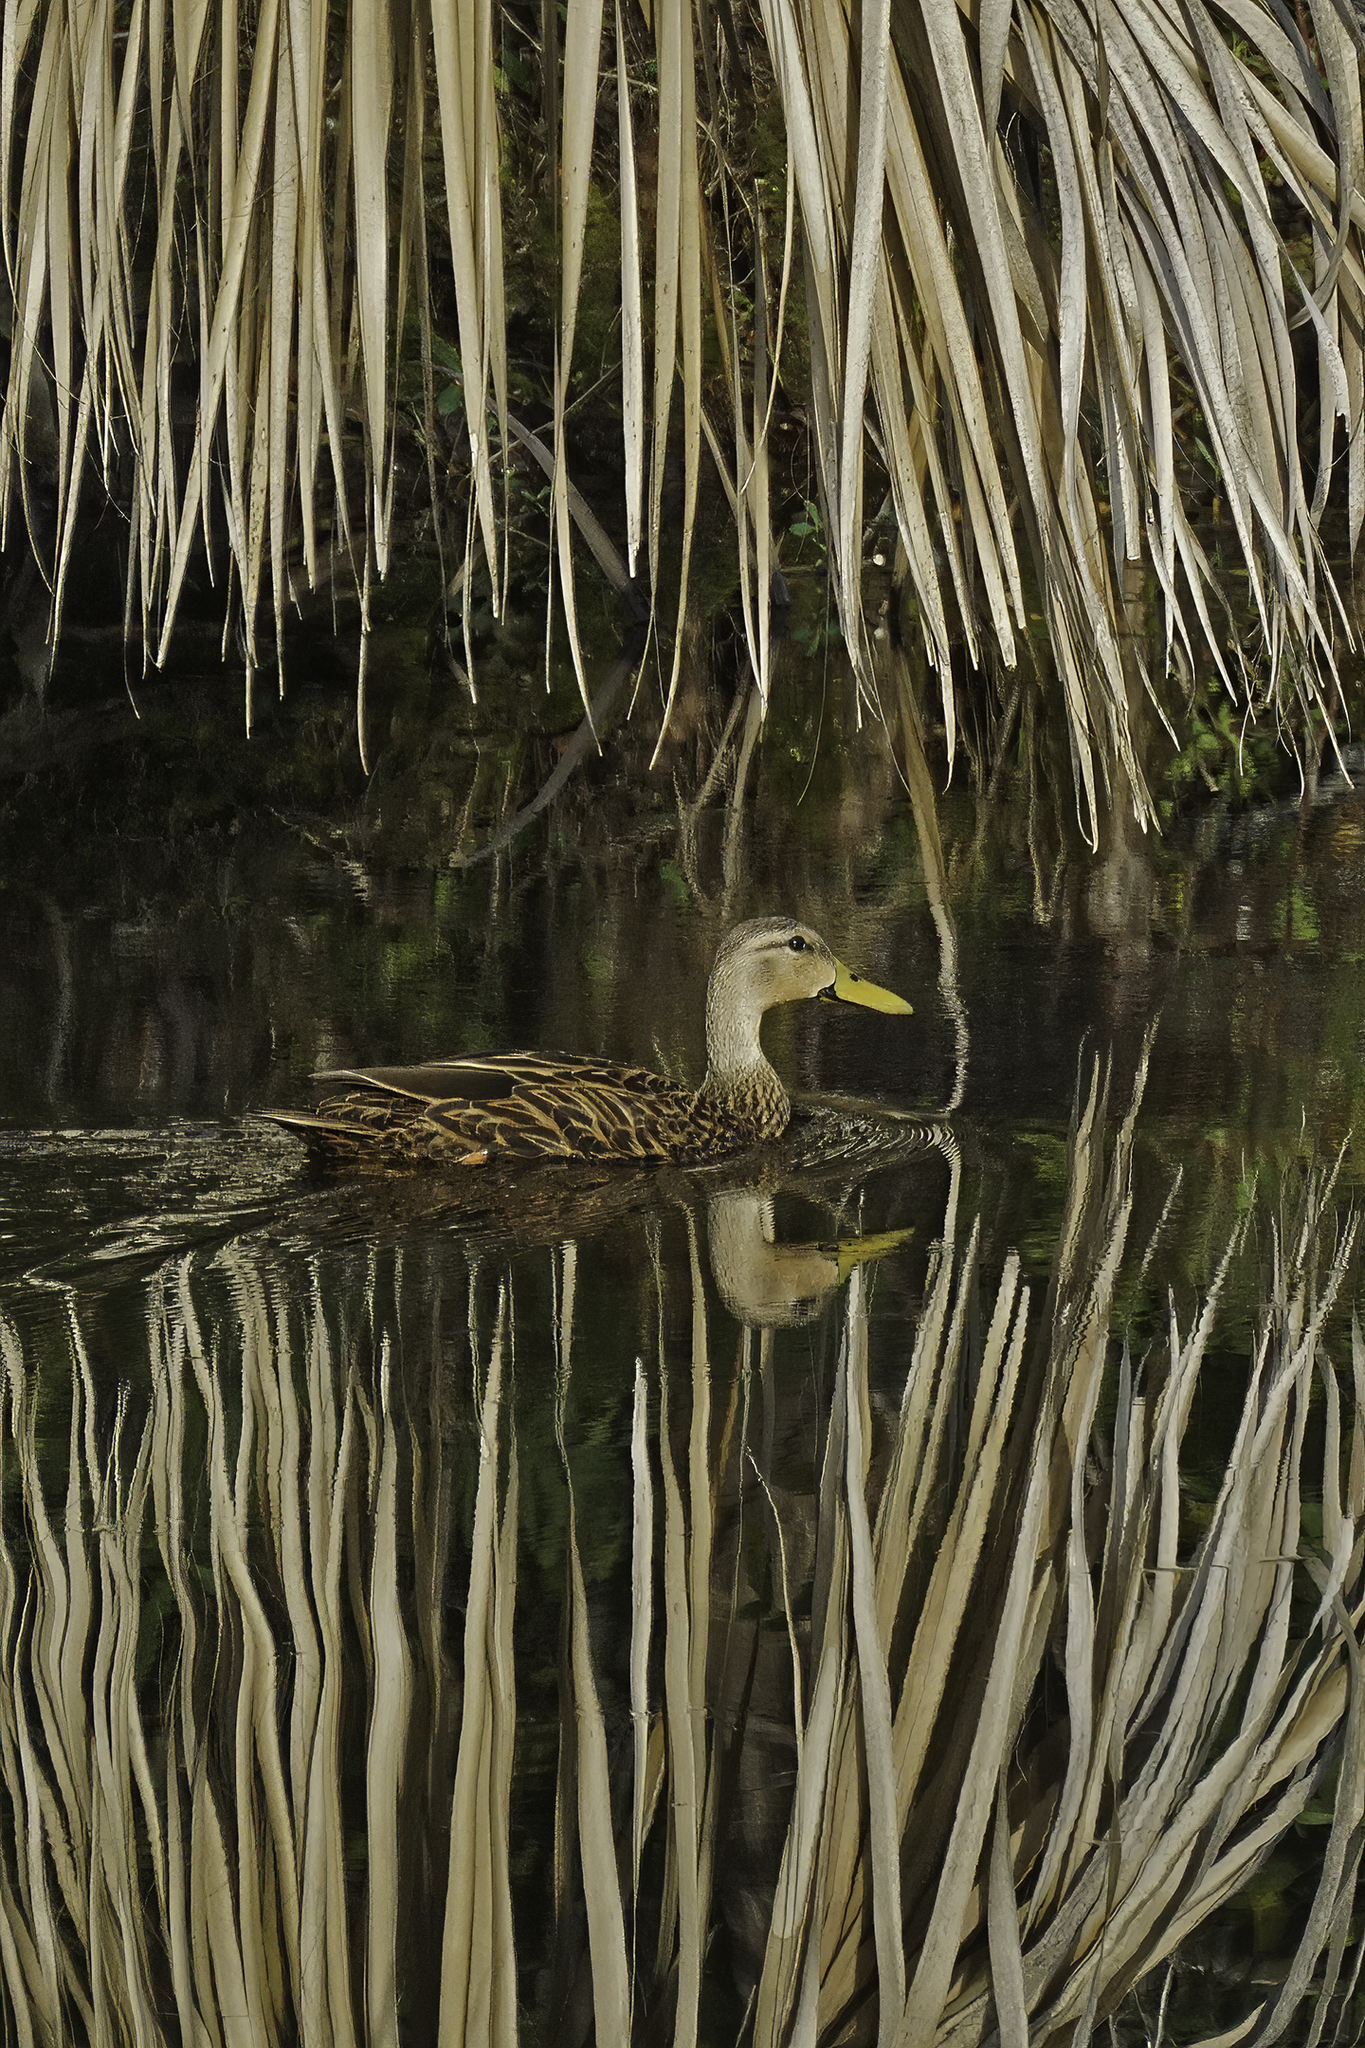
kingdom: Animalia
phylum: Chordata
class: Aves
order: Anseriformes
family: Anatidae
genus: Anas
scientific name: Anas fulvigula
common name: Mottled duck
